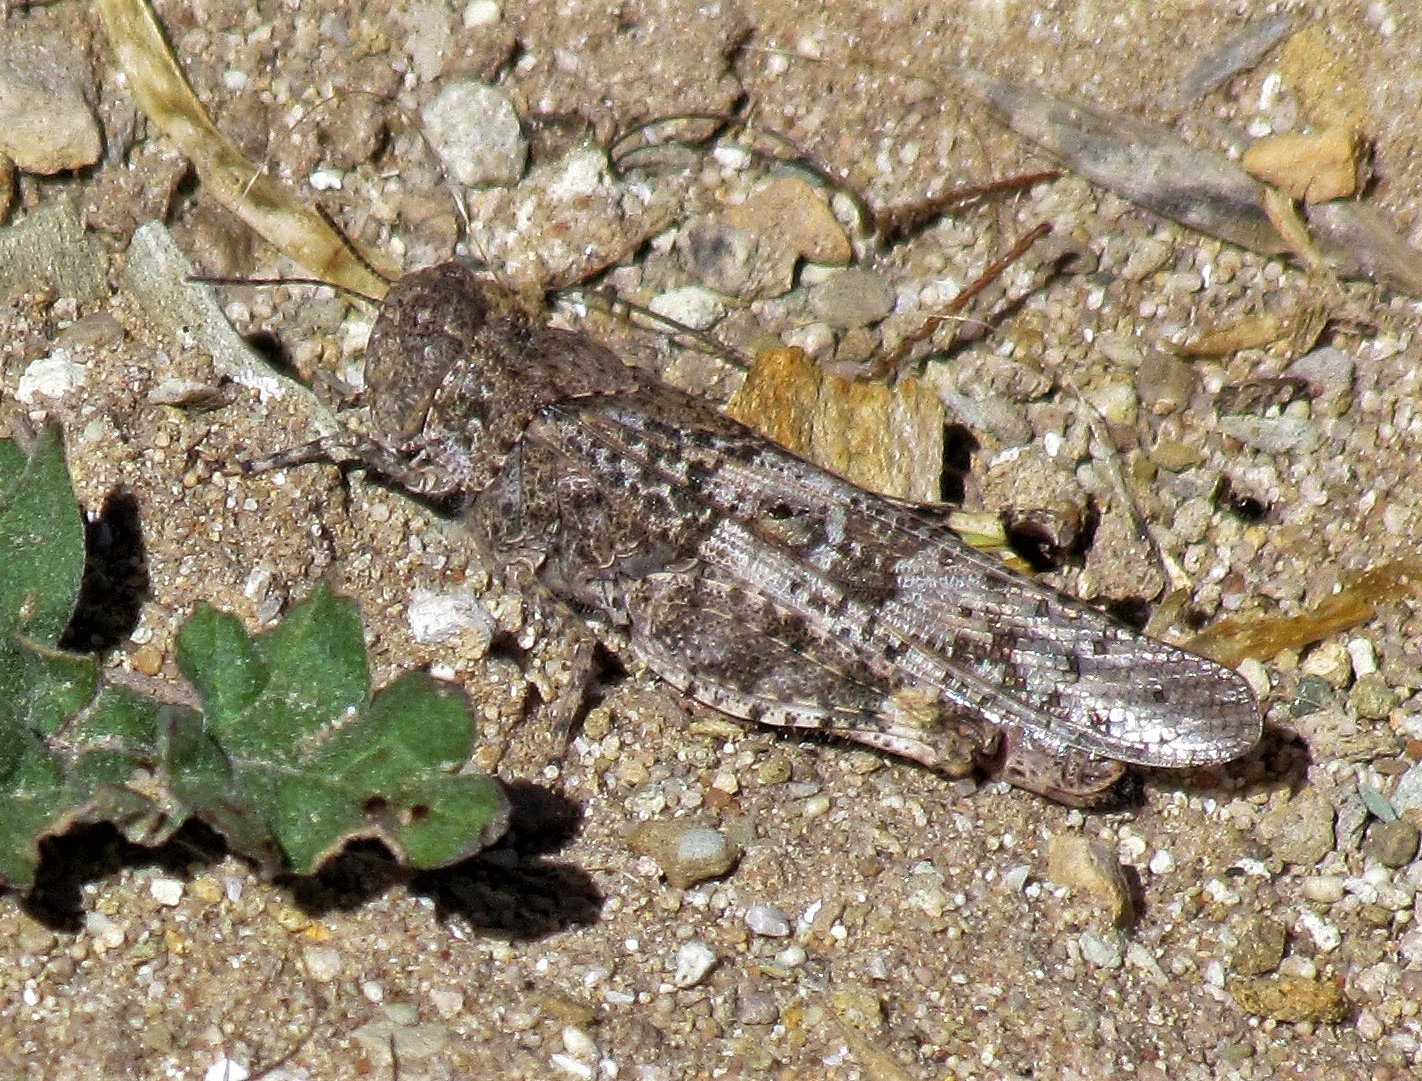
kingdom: Animalia
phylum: Arthropoda
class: Insecta
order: Orthoptera
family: Acrididae
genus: Trimerotropis
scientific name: Trimerotropis pallidipennis
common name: Pallid-winged grasshopper
